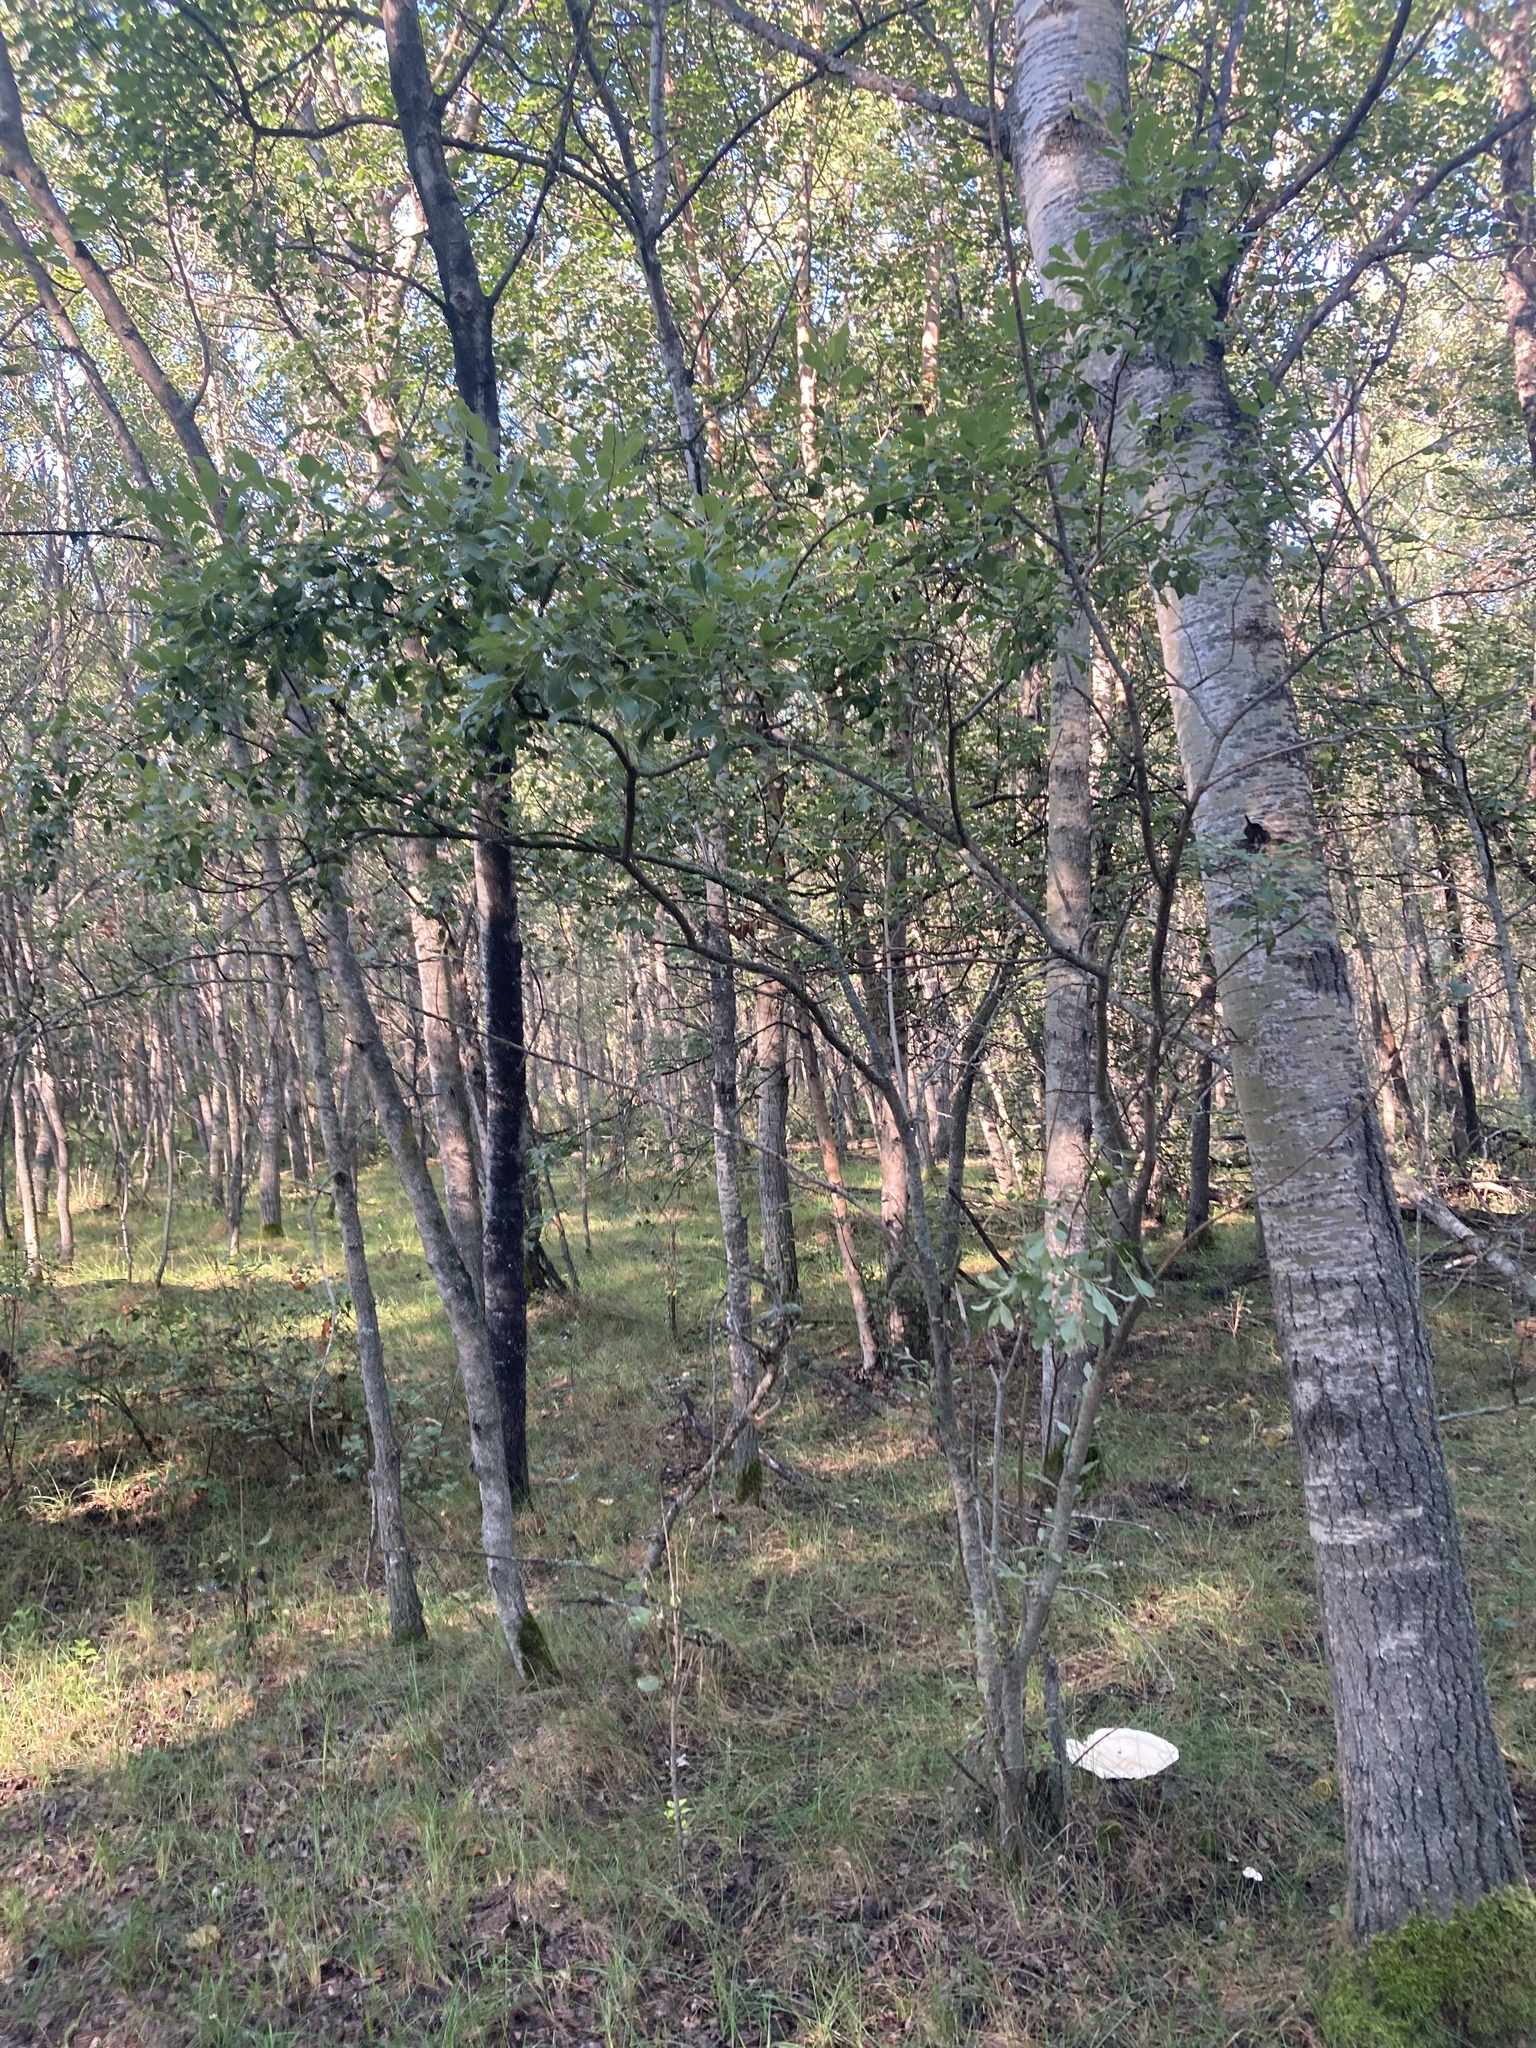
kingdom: Plantae
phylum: Tracheophyta
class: Magnoliopsida
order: Malpighiales
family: Salicaceae
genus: Salix
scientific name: Salix discolor
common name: Glaucous willow
